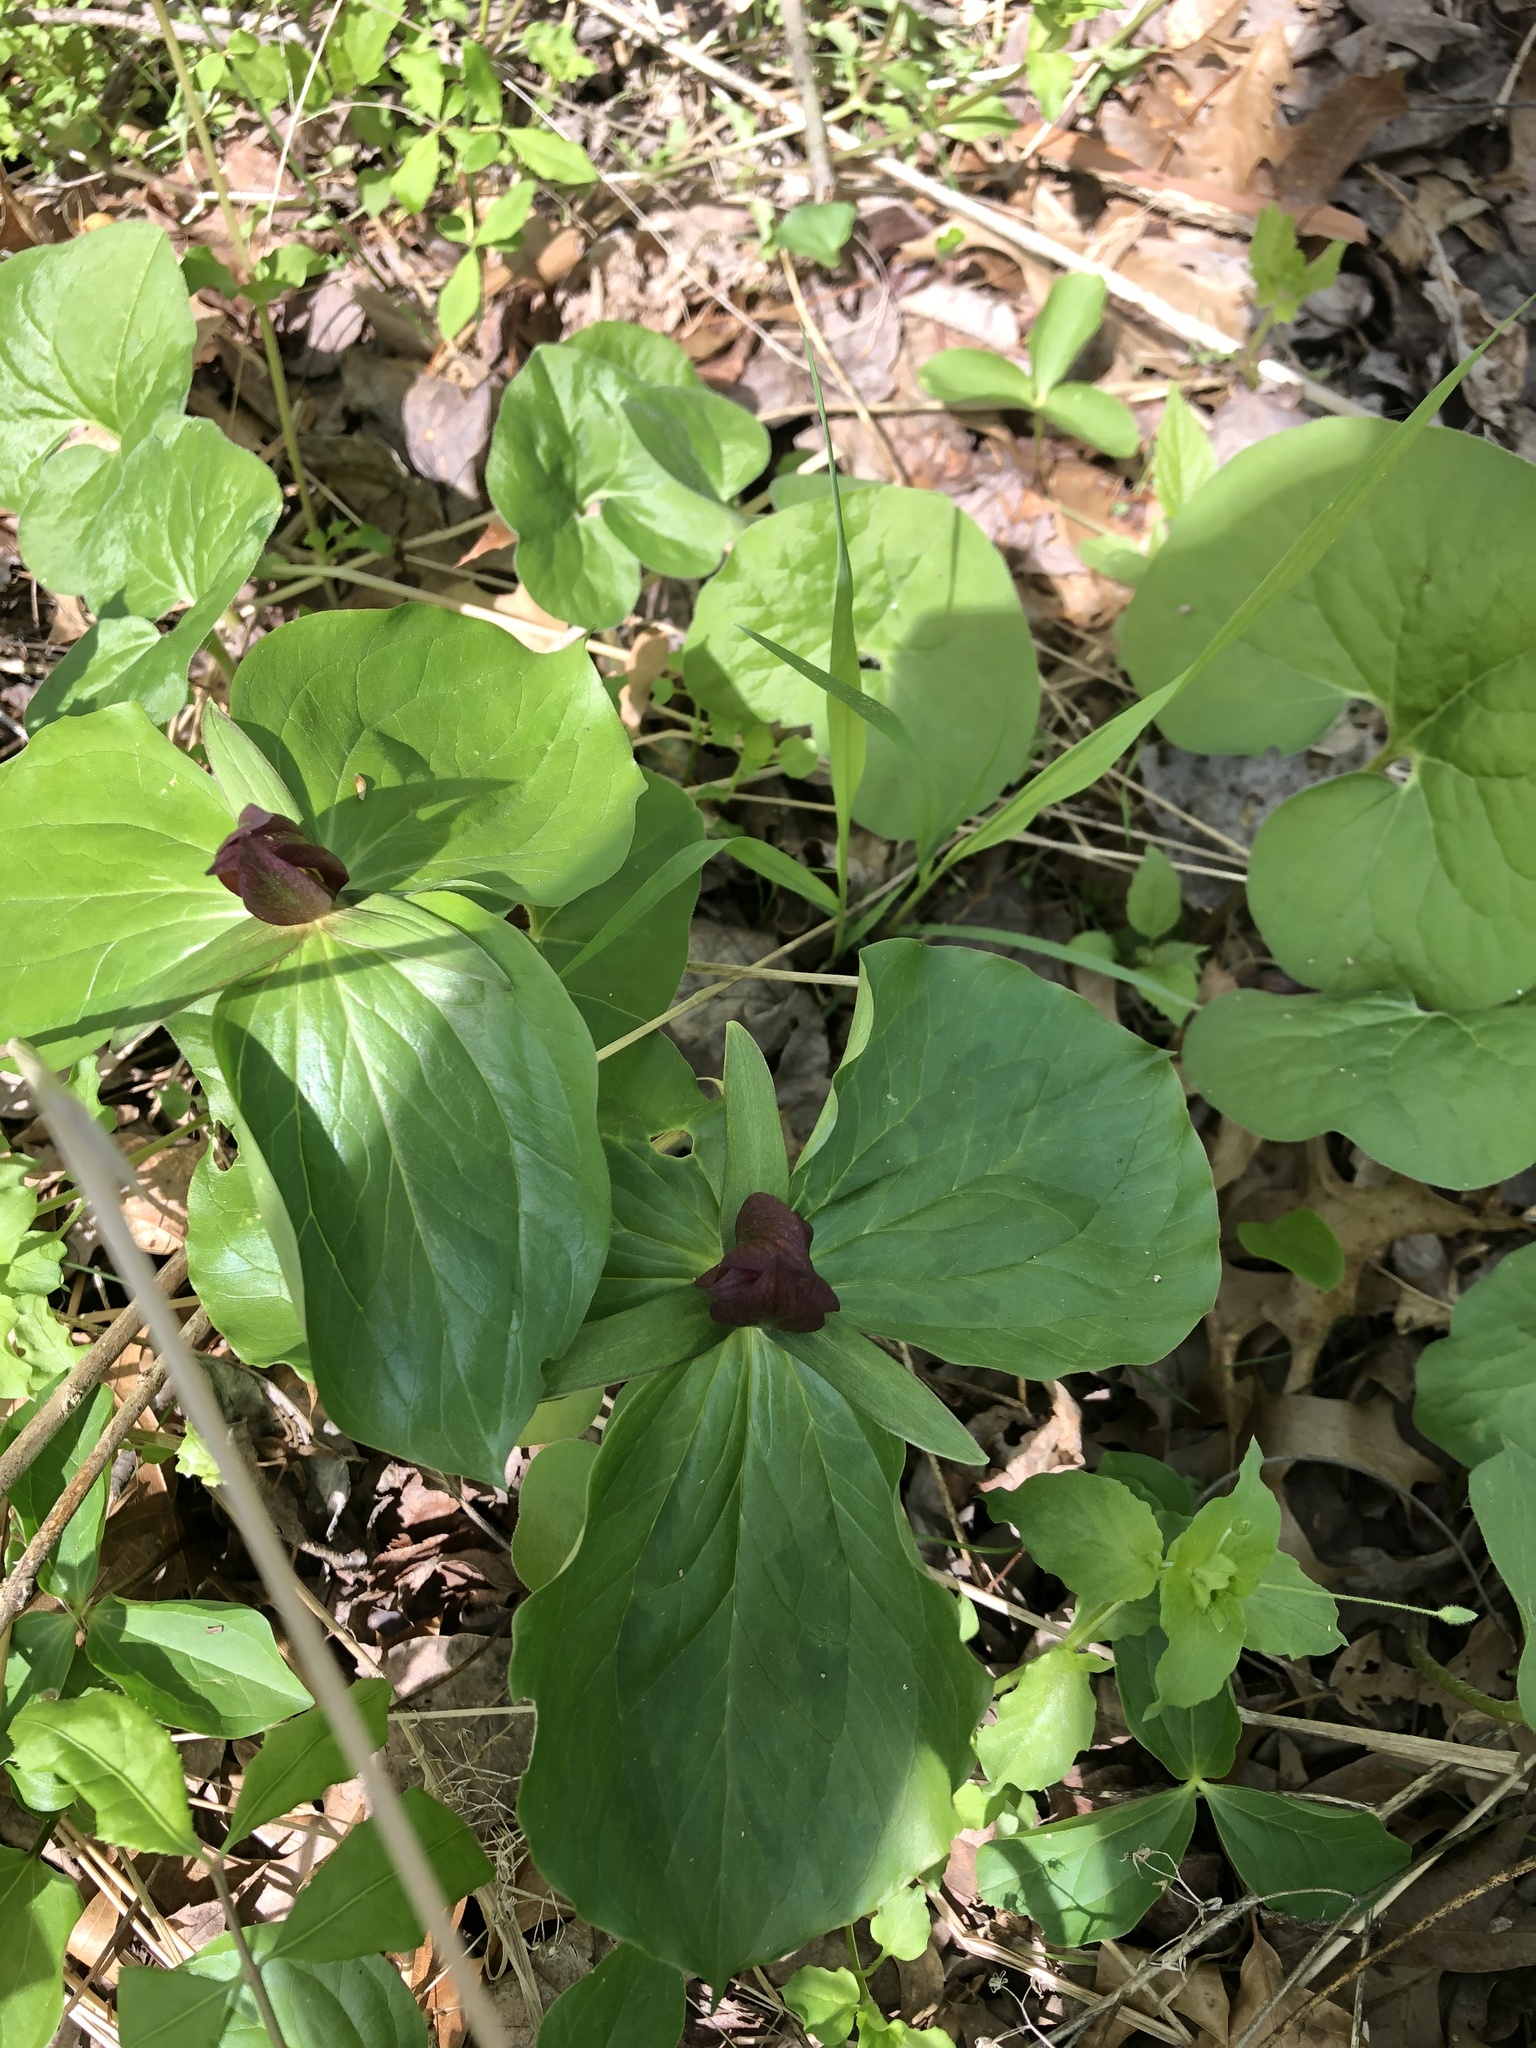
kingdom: Plantae
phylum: Tracheophyta
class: Liliopsida
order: Liliales
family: Melanthiaceae
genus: Trillium
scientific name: Trillium sessile
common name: Sessile trillium
